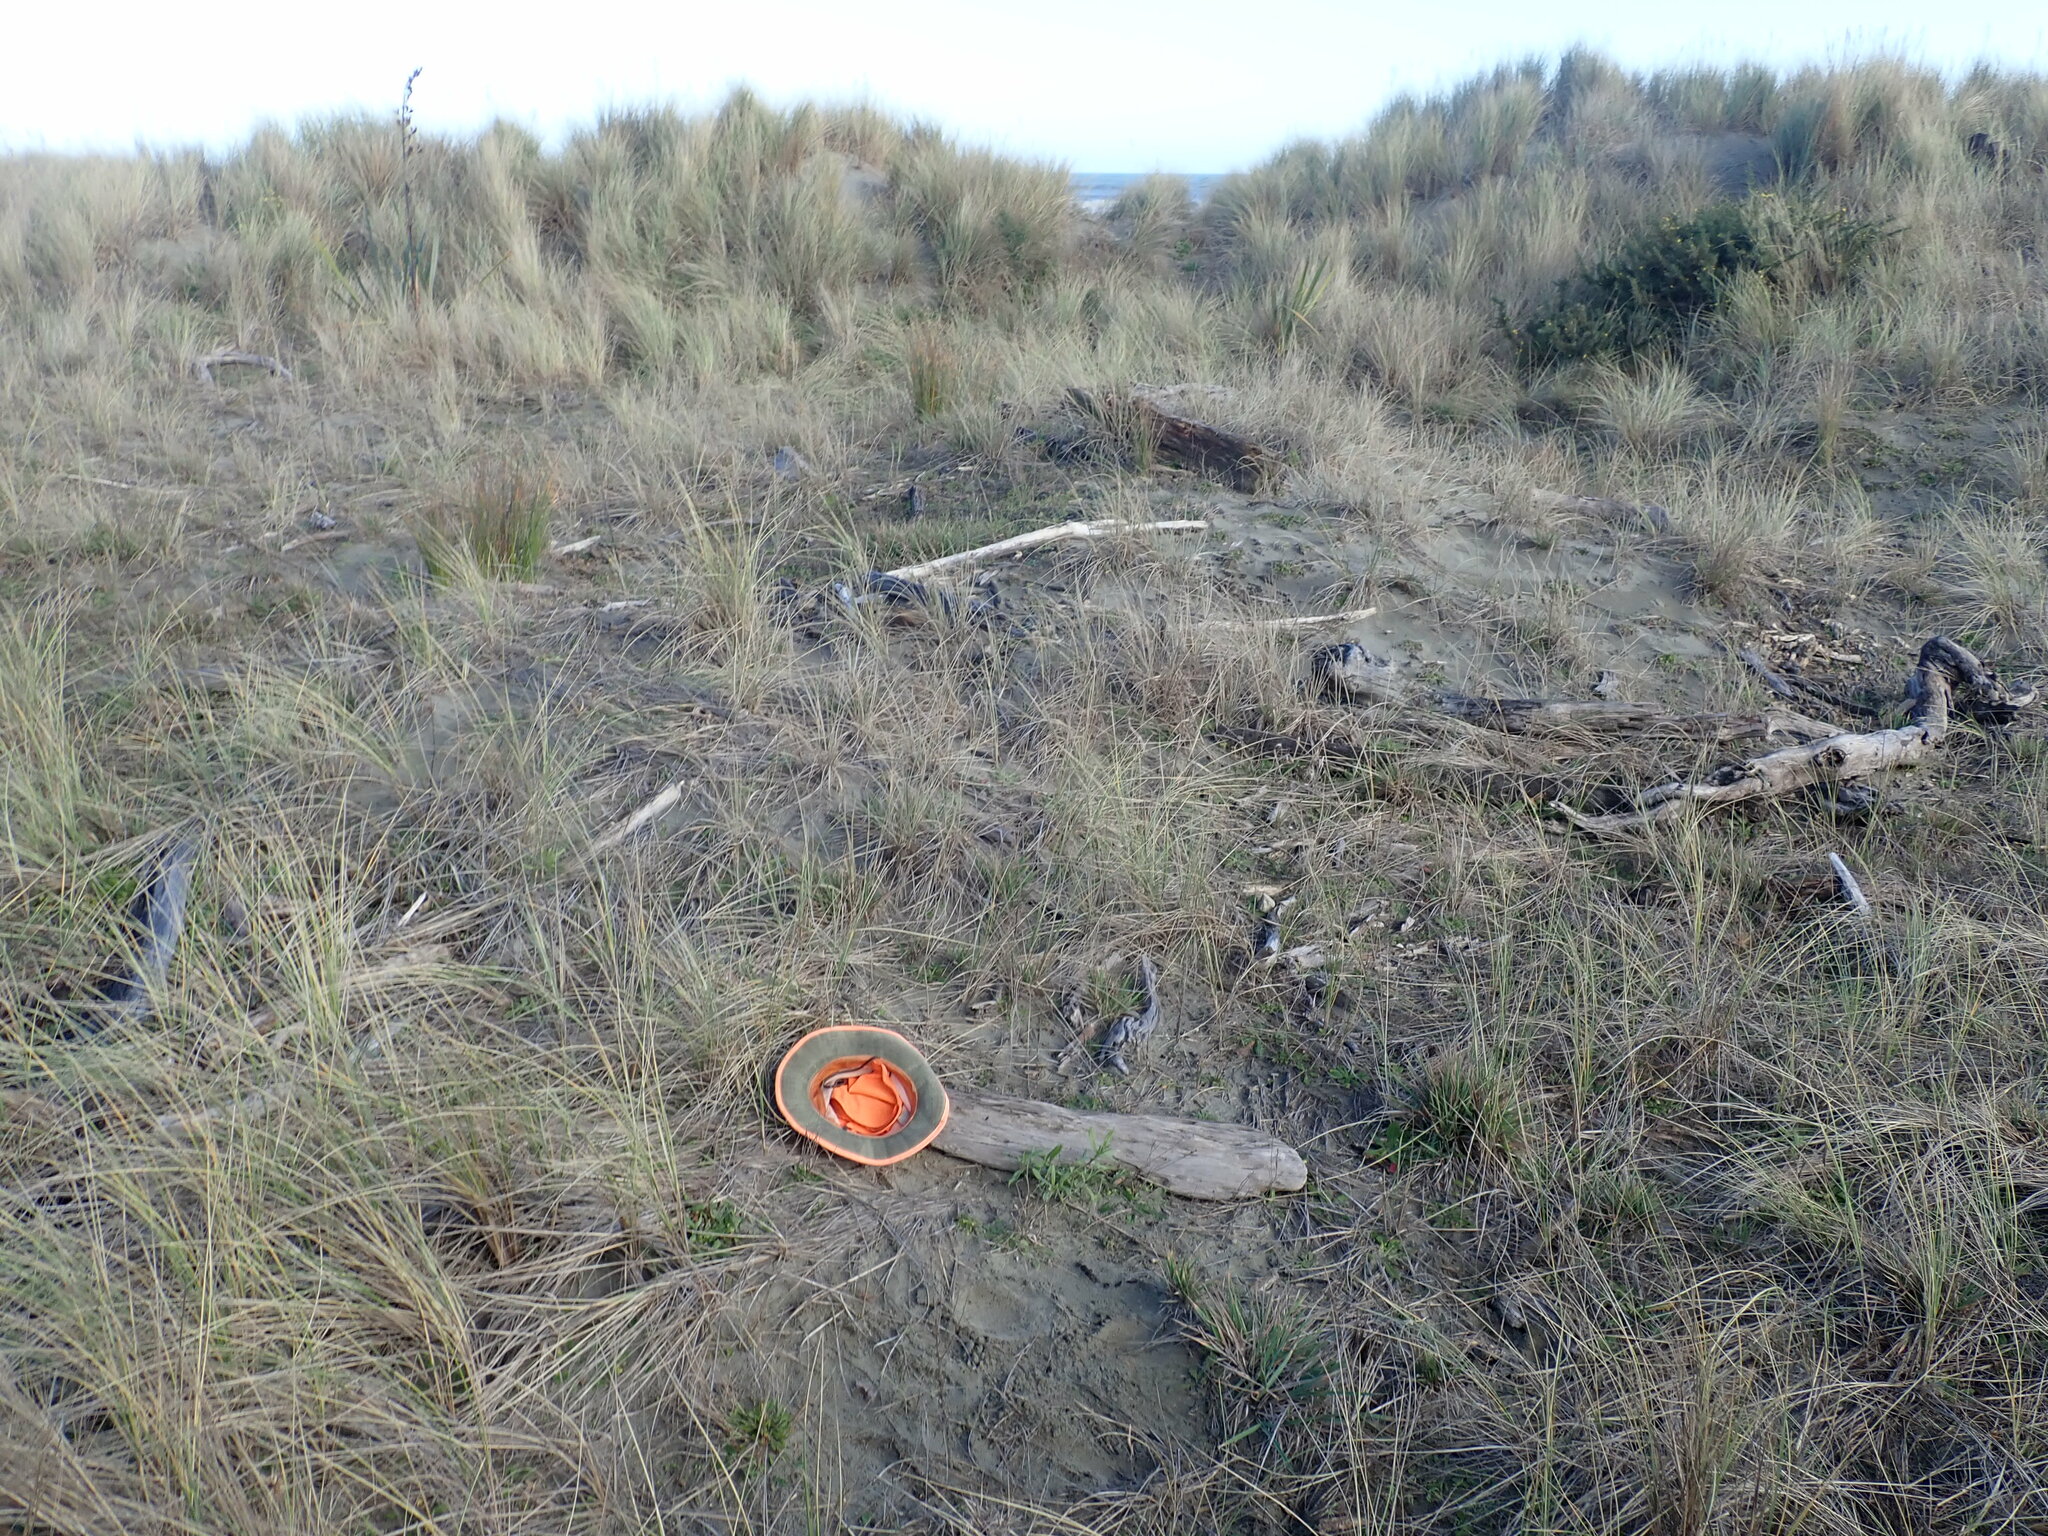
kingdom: Animalia
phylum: Arthropoda
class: Insecta
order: Dermaptera
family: Anisolabididae
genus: Anisolabis
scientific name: Anisolabis littorea
